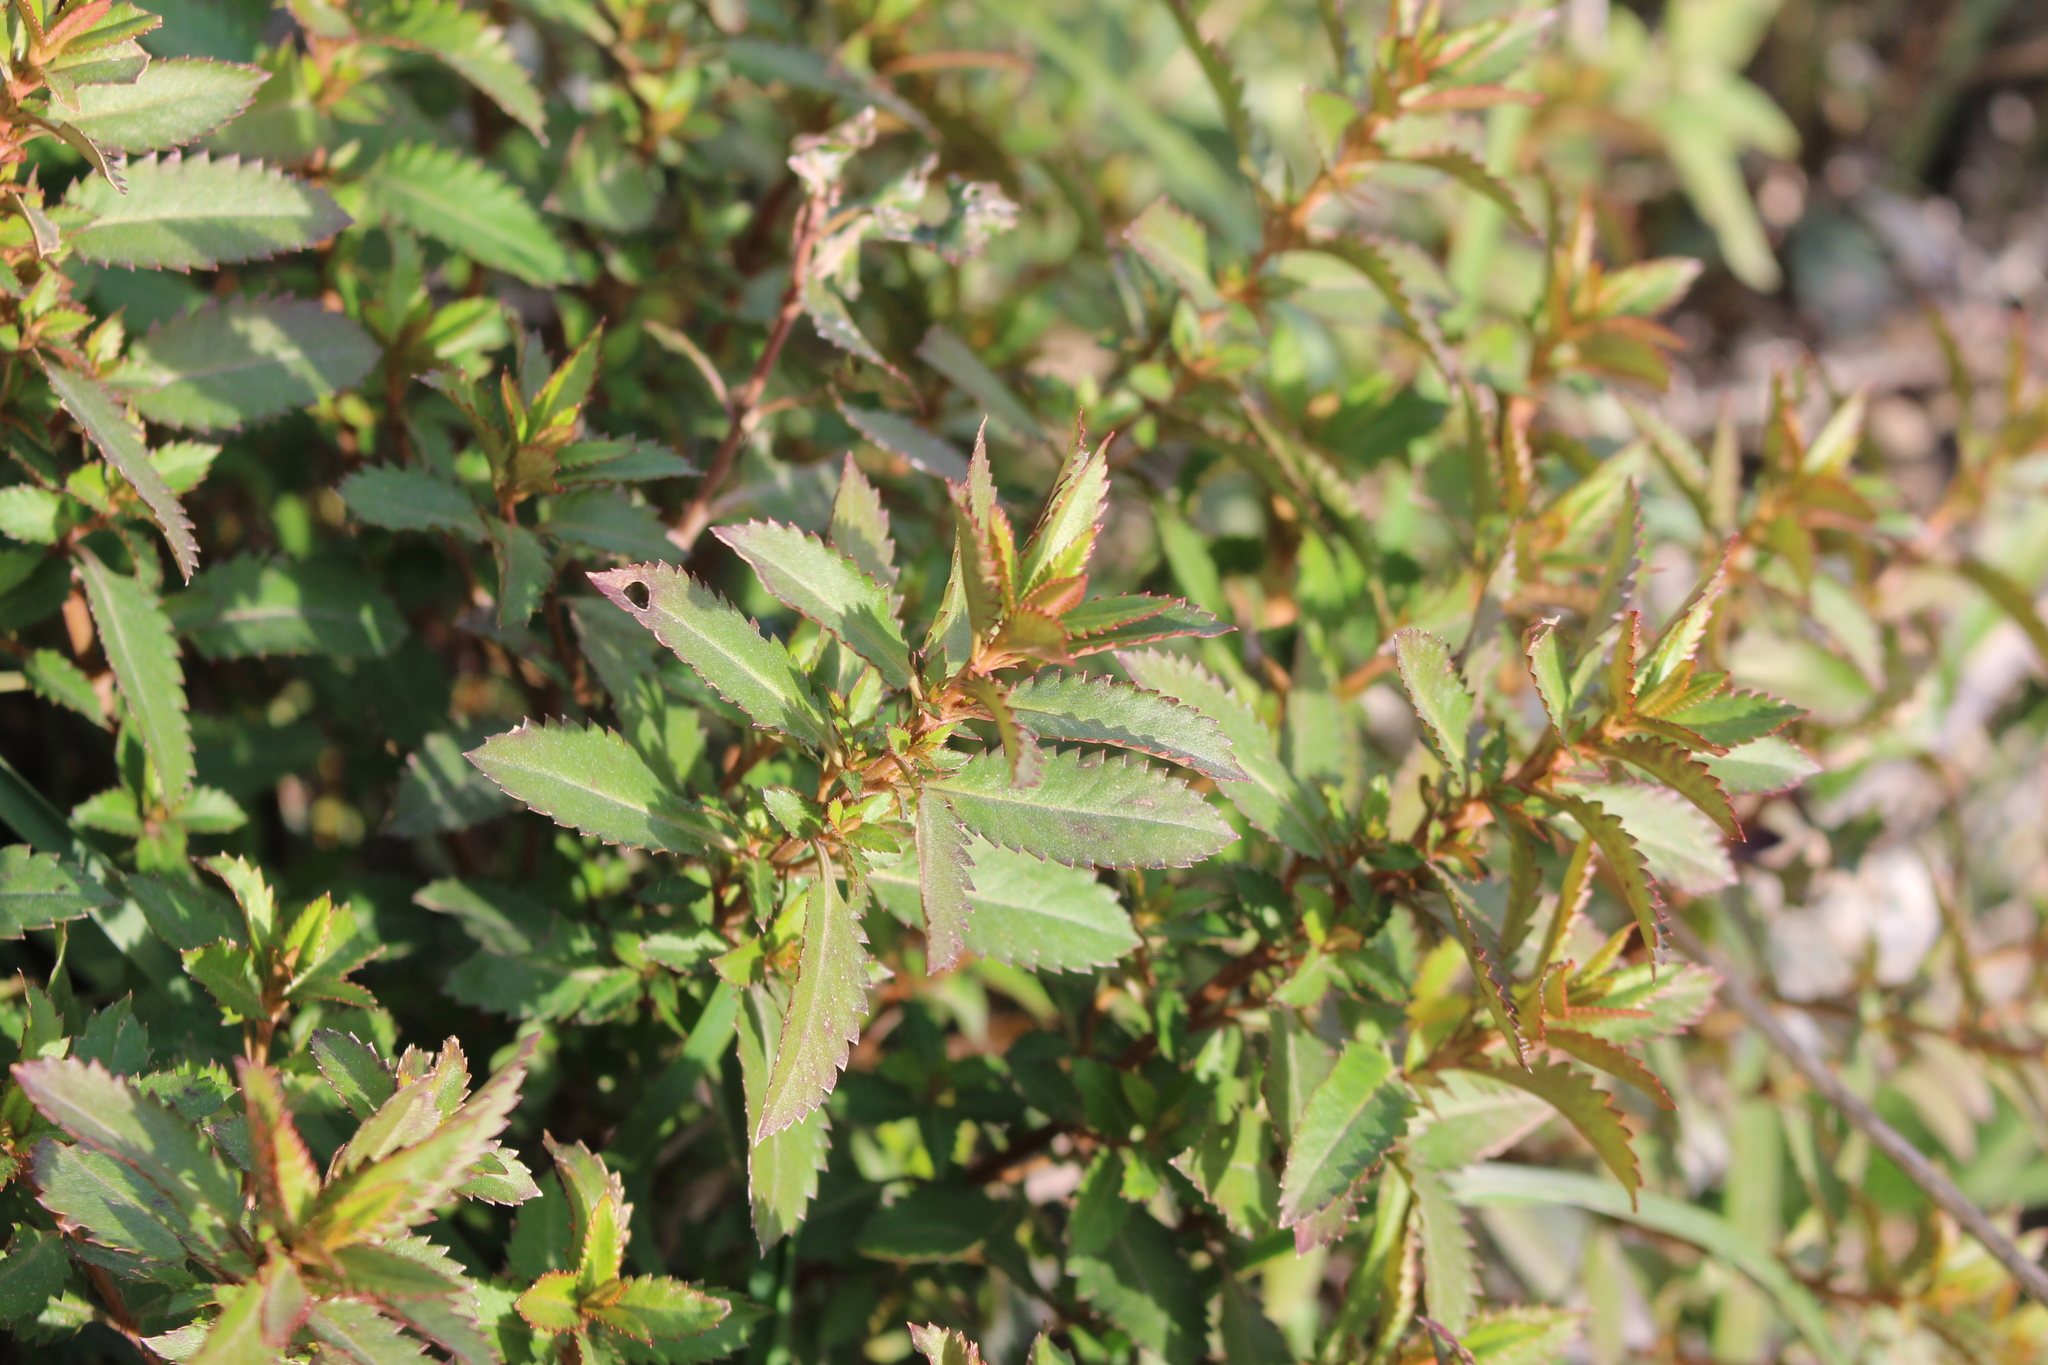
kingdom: Plantae
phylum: Tracheophyta
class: Magnoliopsida
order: Saxifragales
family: Haloragaceae
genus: Haloragis
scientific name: Haloragis erecta
